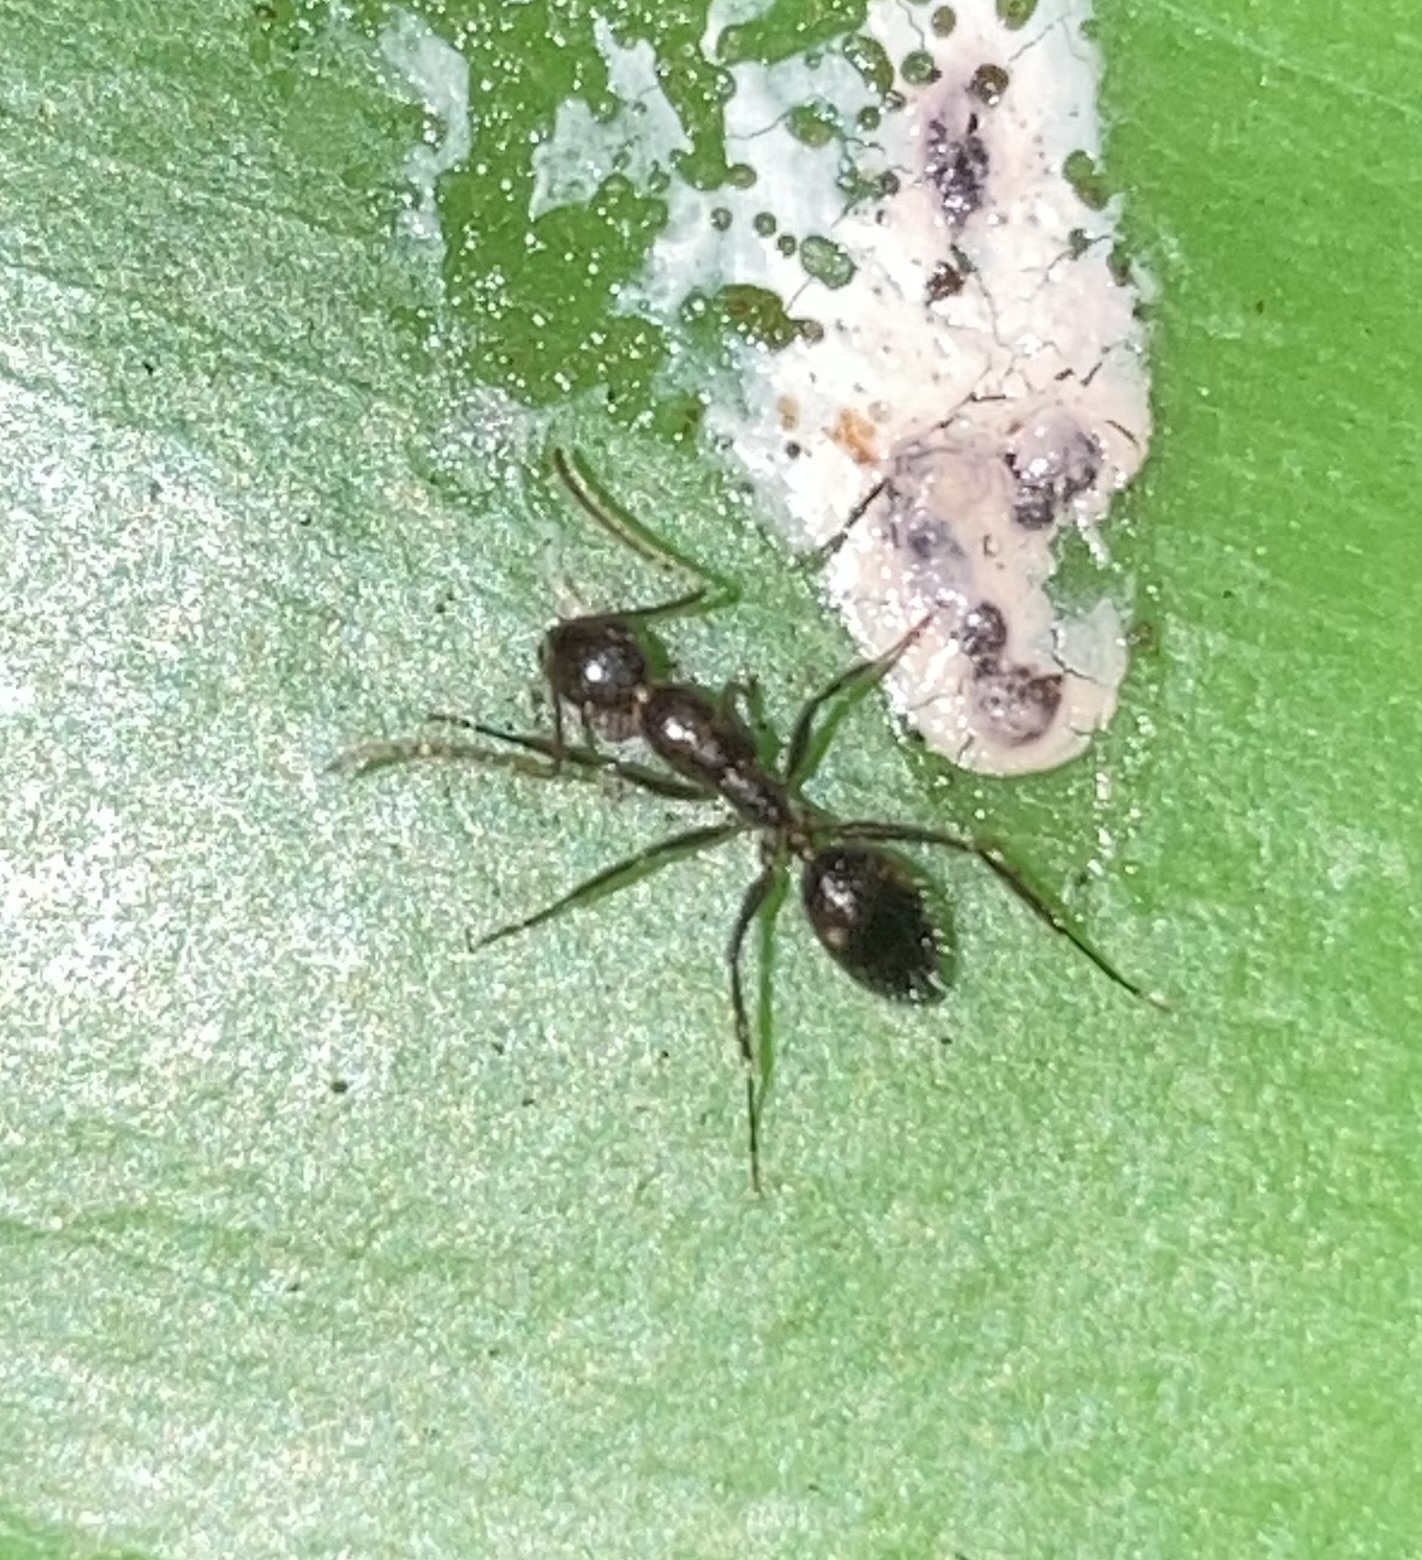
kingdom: Animalia
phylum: Arthropoda
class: Insecta
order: Hymenoptera
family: Formicidae
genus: Camponotus
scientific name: Camponotus sexguttatus
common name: Neotropical carpenter ant
